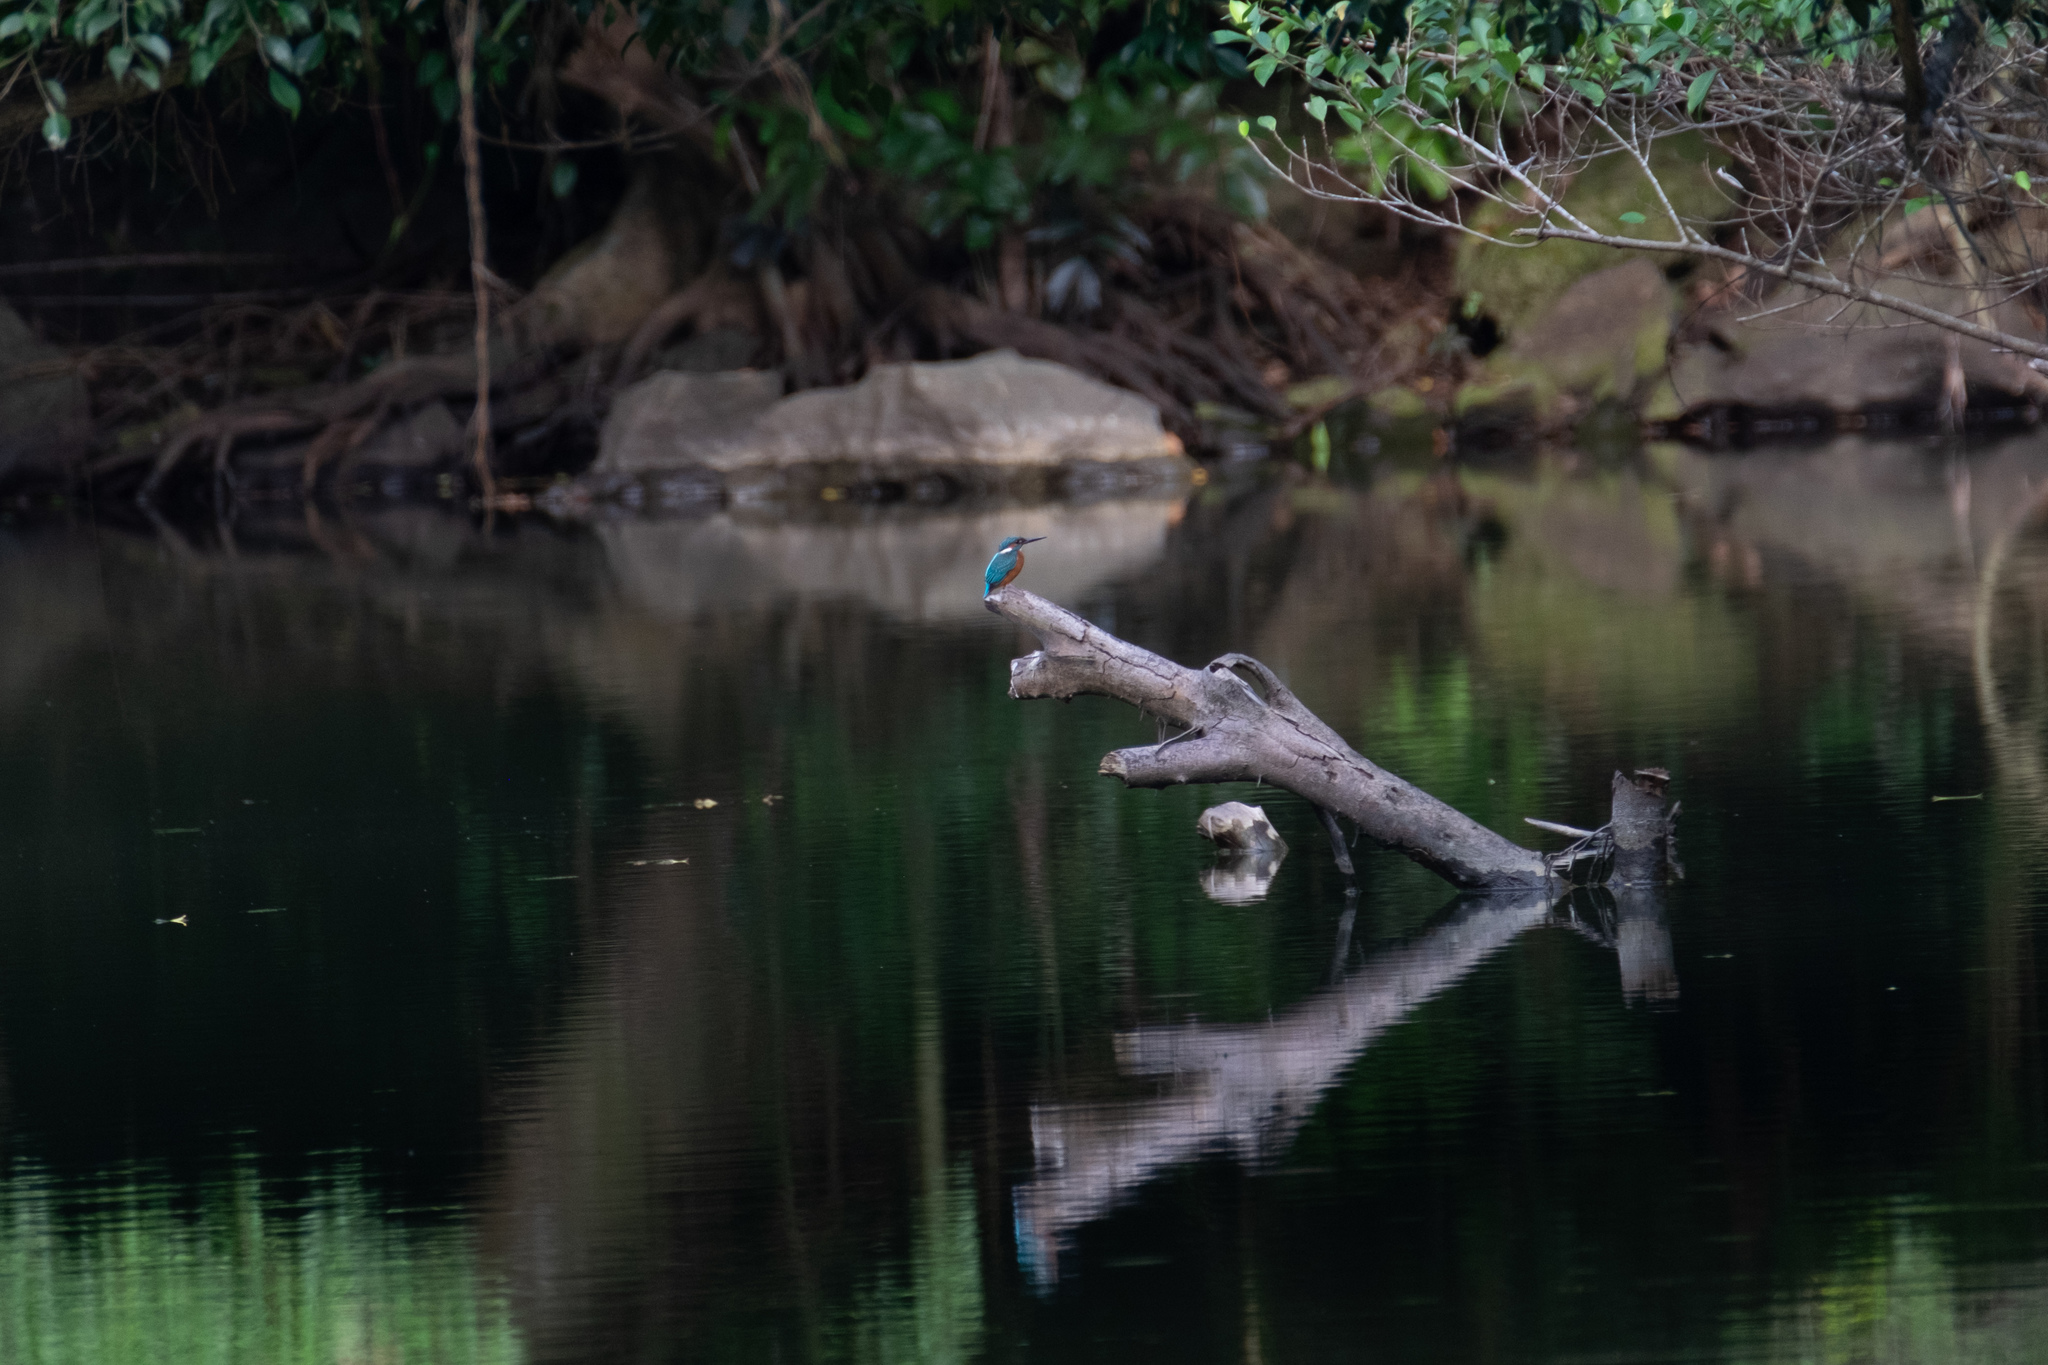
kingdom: Animalia
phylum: Chordata
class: Aves
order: Coraciiformes
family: Alcedinidae
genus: Alcedo
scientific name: Alcedo atthis
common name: Common kingfisher
